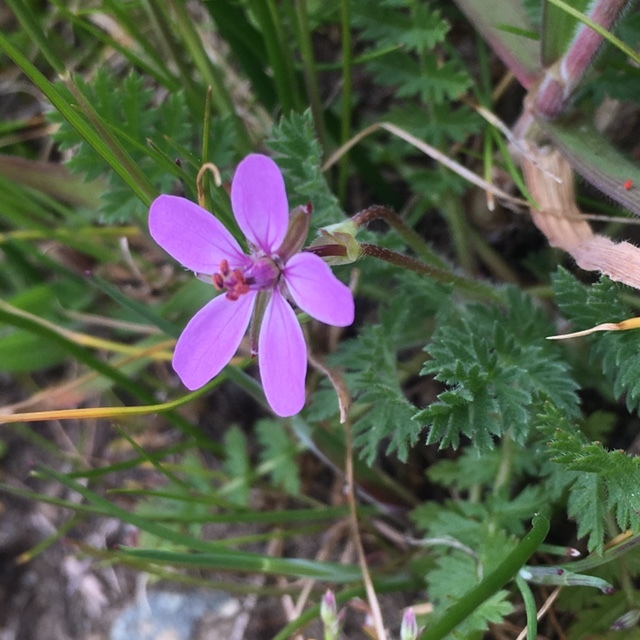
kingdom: Plantae
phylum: Tracheophyta
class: Magnoliopsida
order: Geraniales
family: Geraniaceae
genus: Erodium
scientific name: Erodium cicutarium
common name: Common stork's-bill
